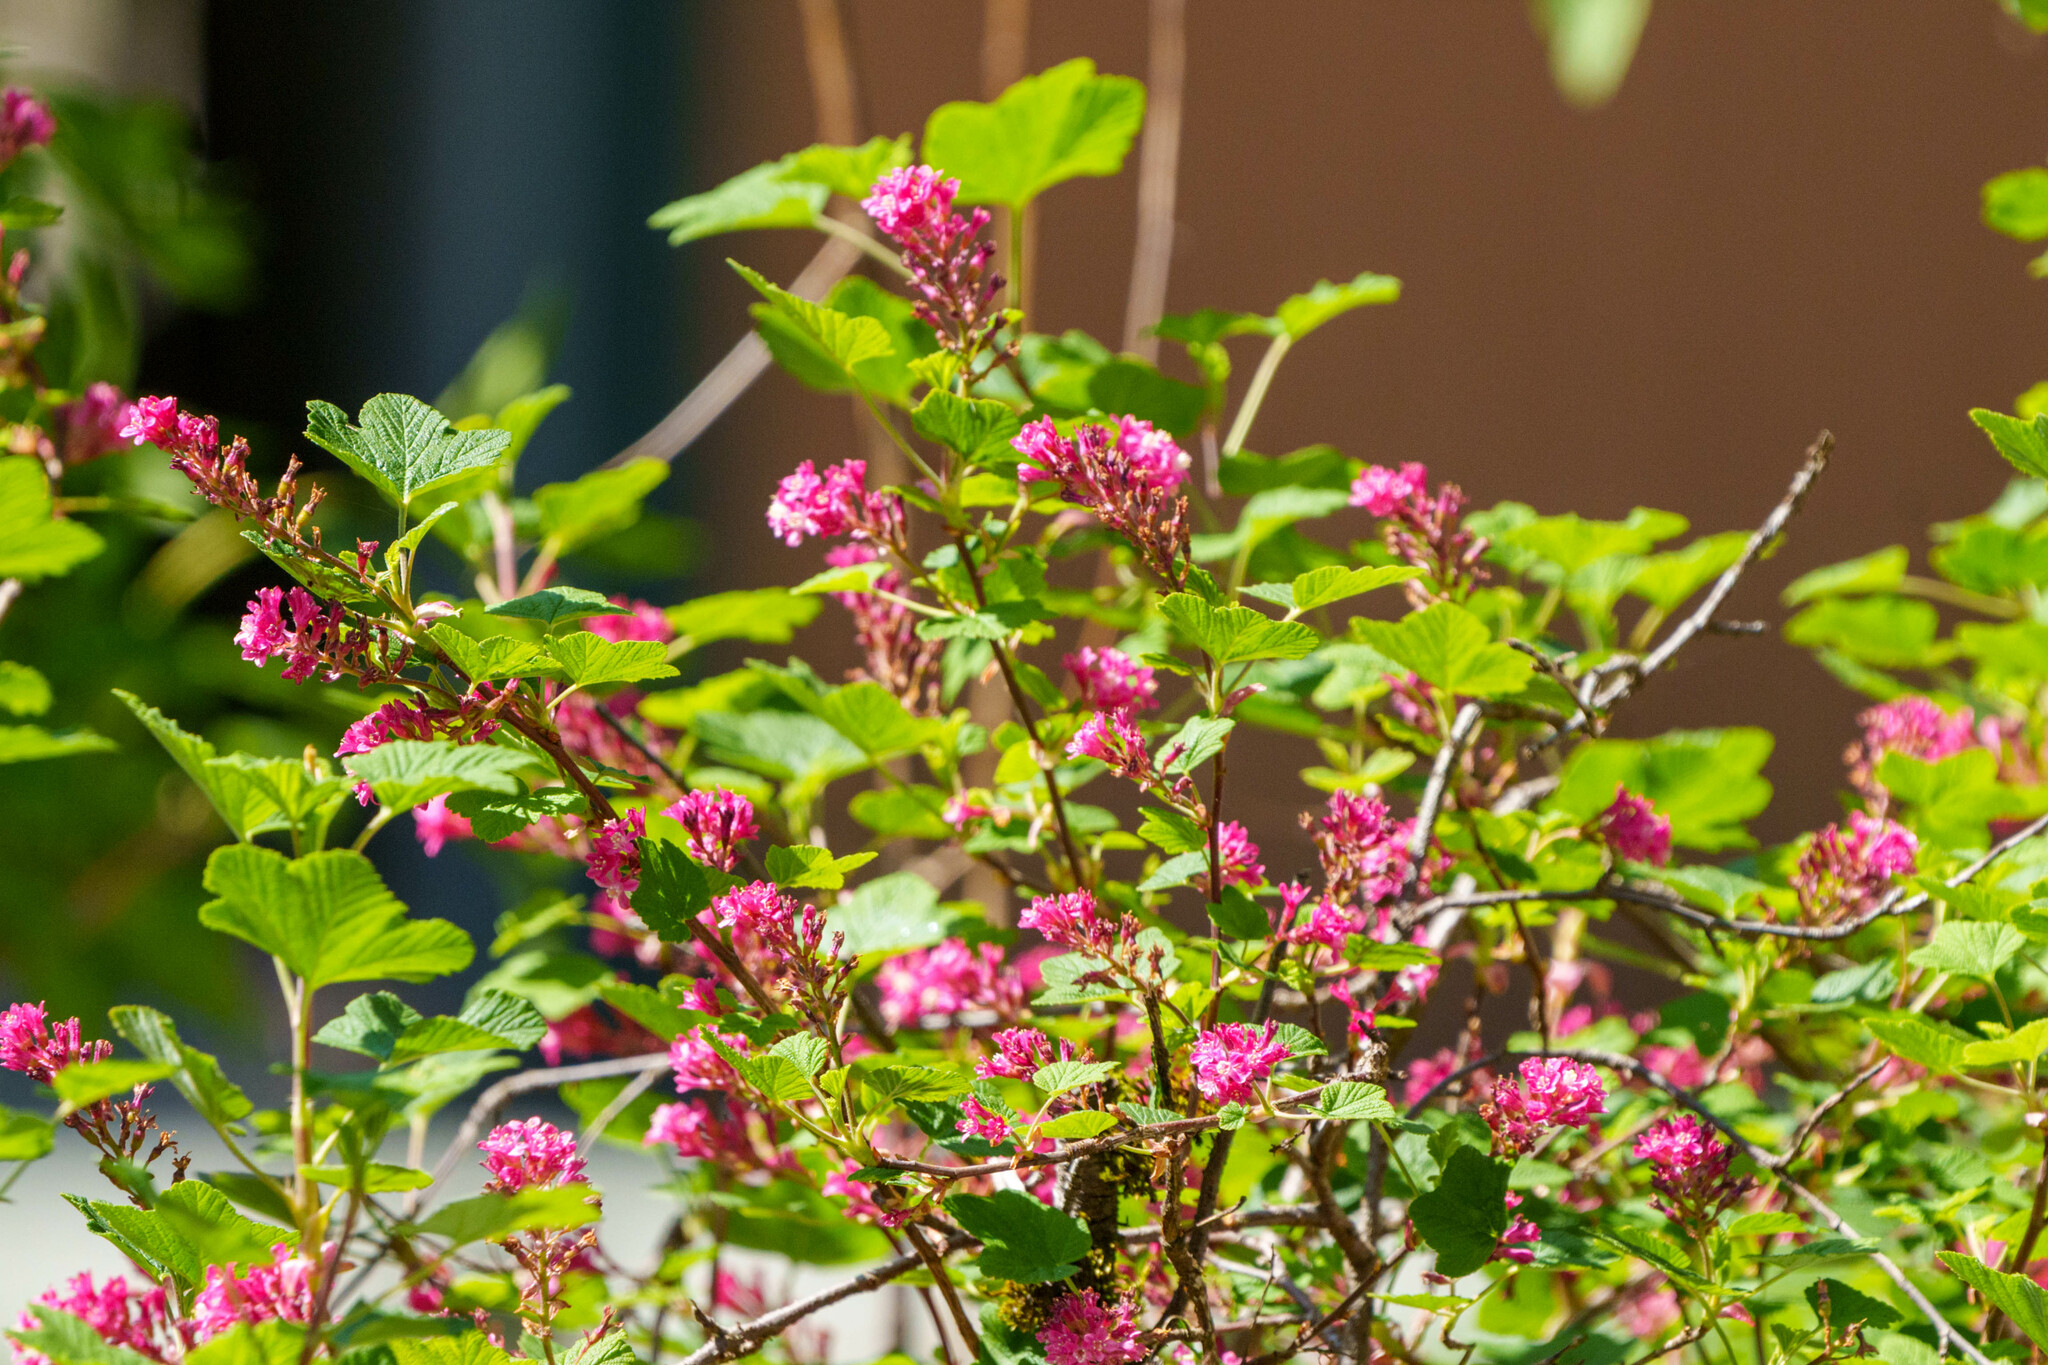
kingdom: Plantae
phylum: Tracheophyta
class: Magnoliopsida
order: Saxifragales
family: Grossulariaceae
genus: Ribes
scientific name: Ribes sanguineum
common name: Flowering currant
